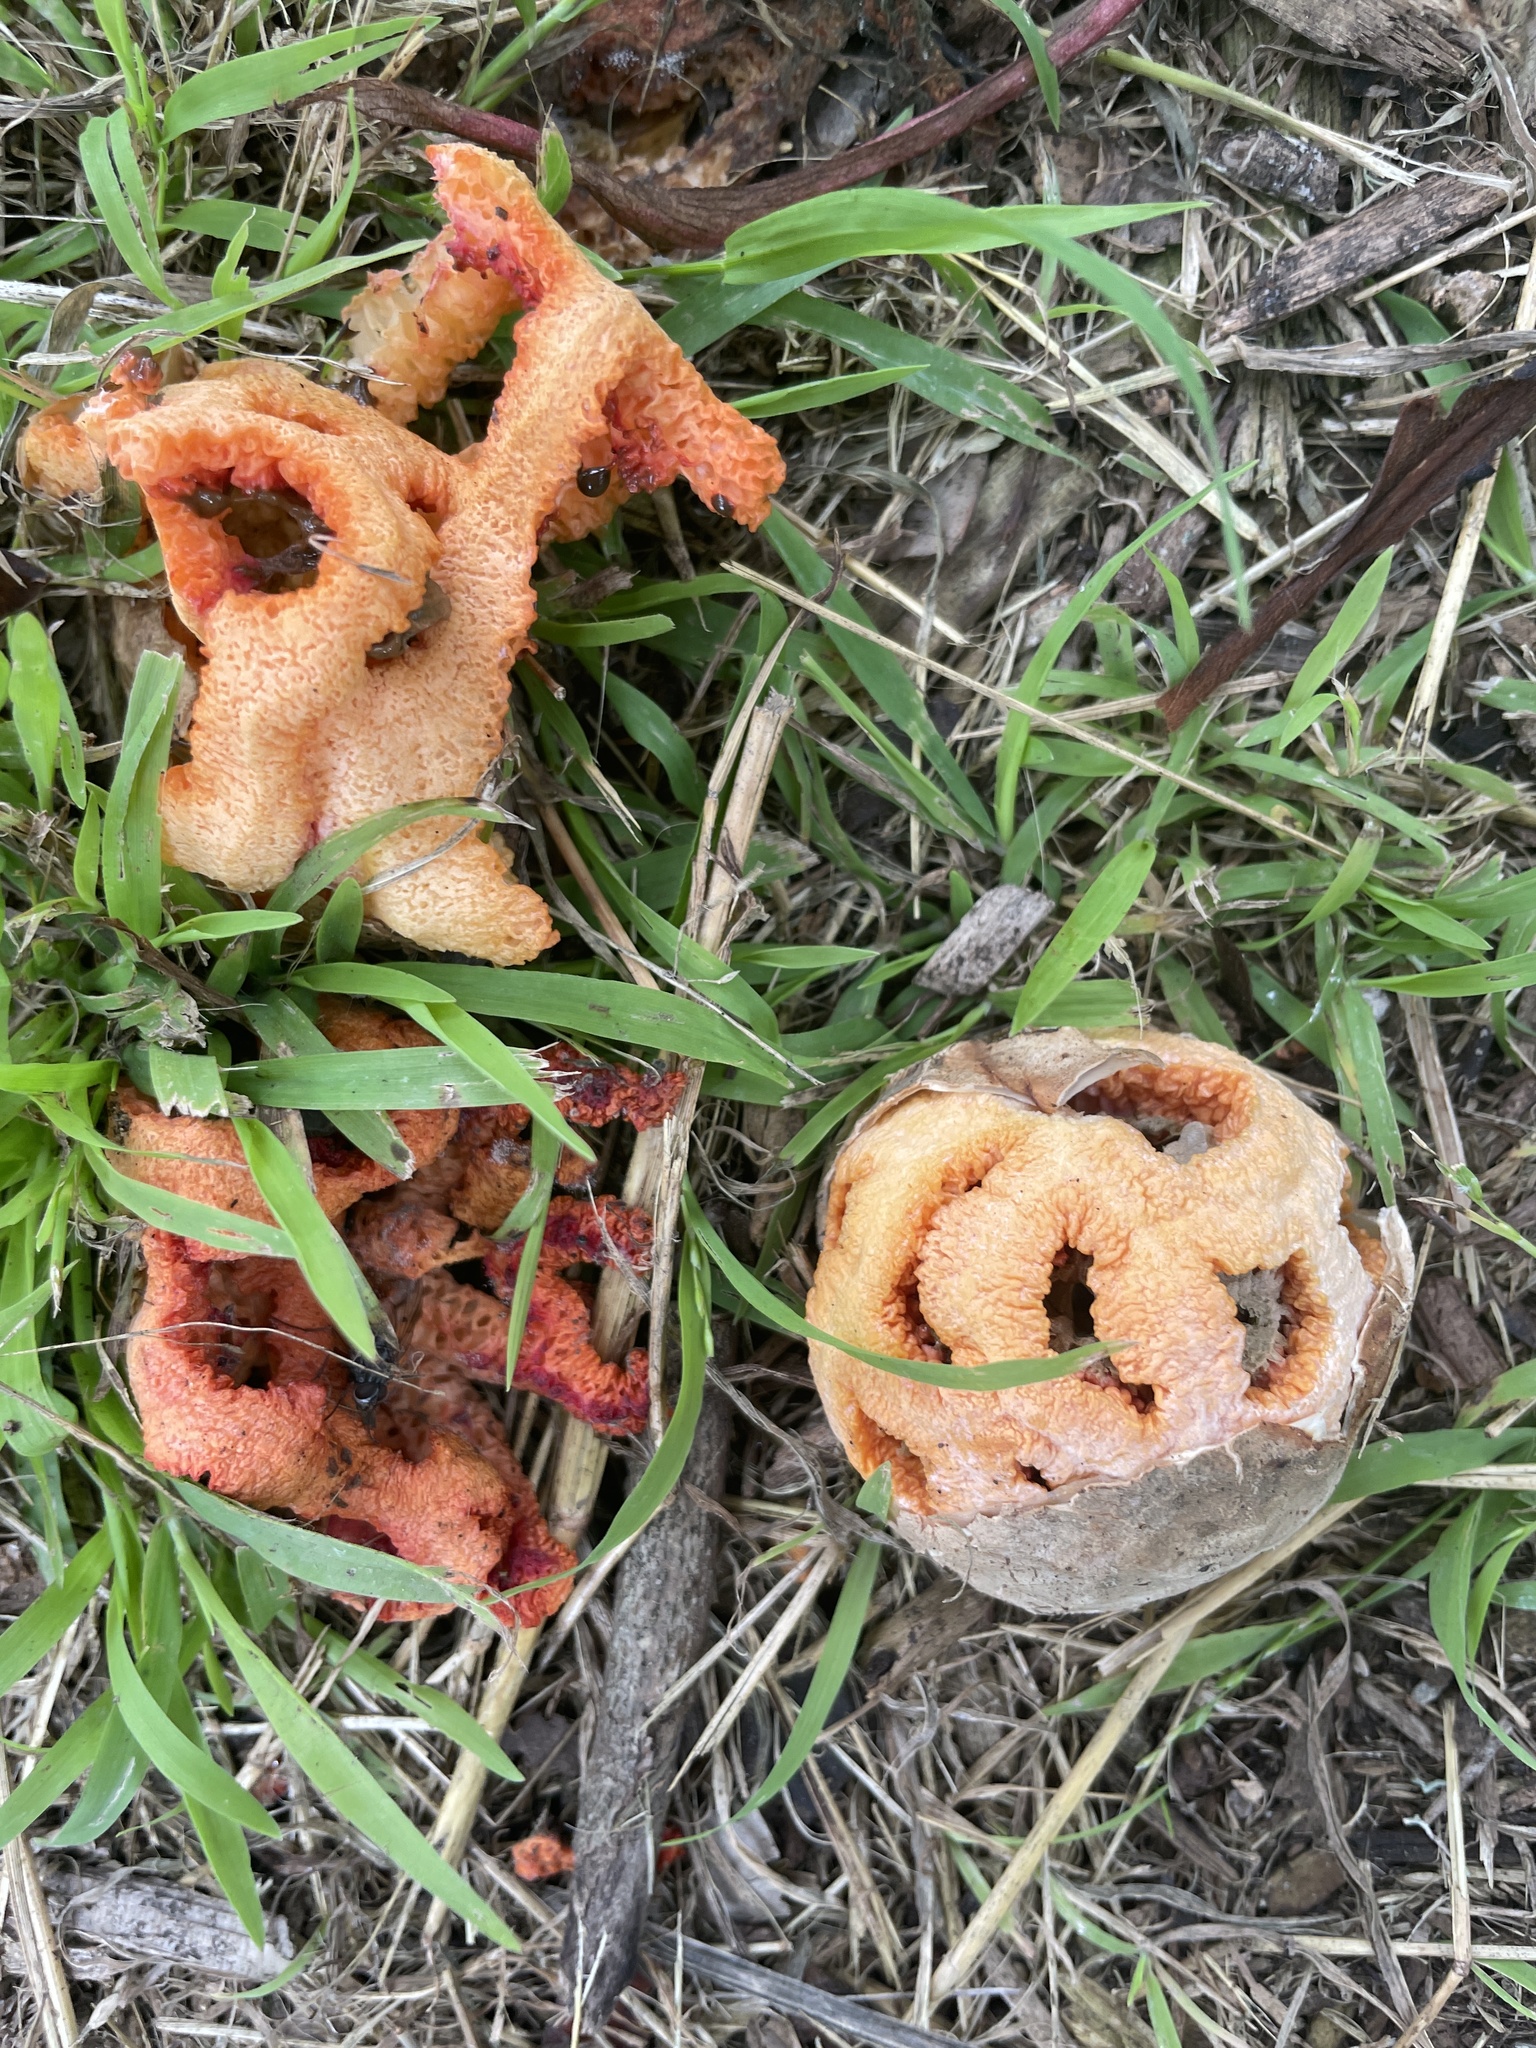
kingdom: Fungi
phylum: Basidiomycota
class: Agaricomycetes
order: Phallales
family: Phallaceae
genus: Clathrus
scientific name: Clathrus ruber
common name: Red cage
